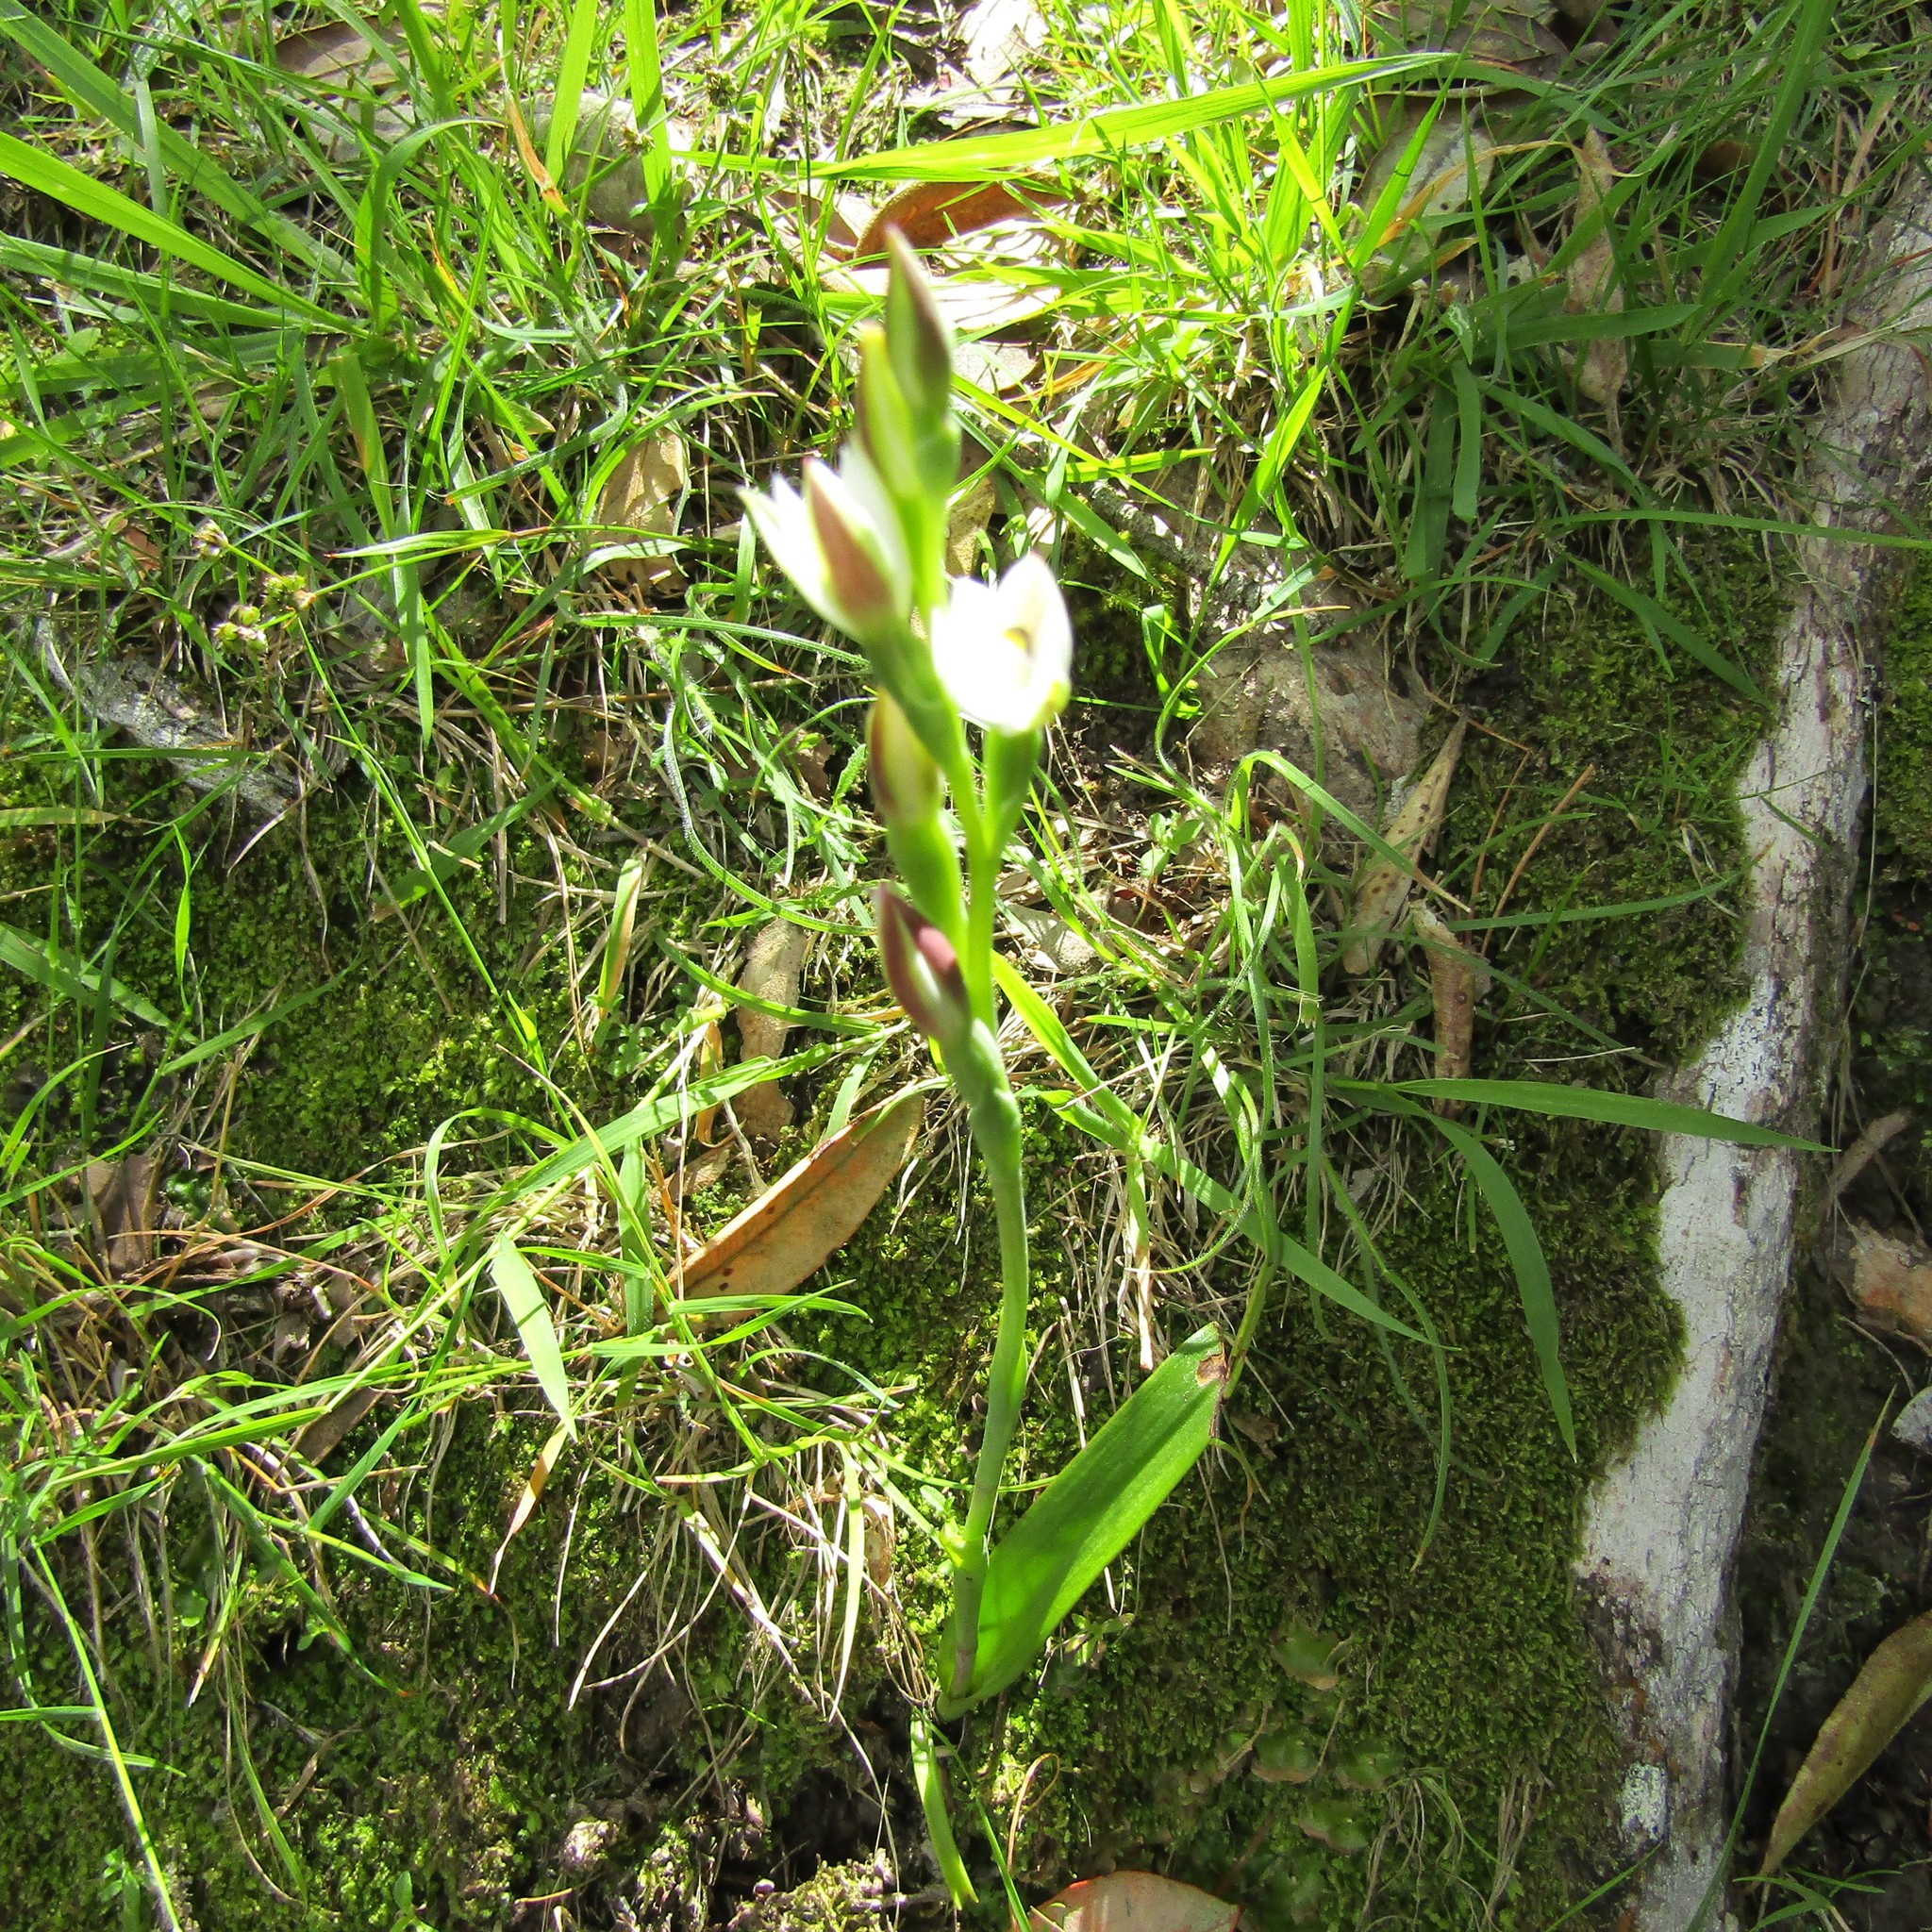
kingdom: Plantae
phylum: Tracheophyta
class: Liliopsida
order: Asparagales
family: Orchidaceae
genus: Thelymitra
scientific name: Thelymitra longifolia
